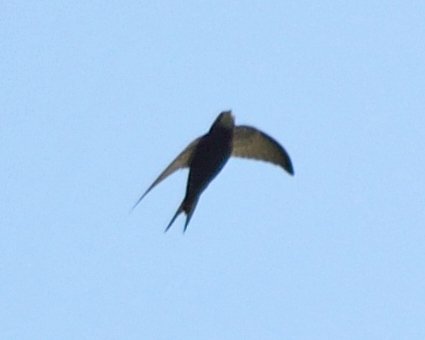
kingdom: Animalia
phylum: Chordata
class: Aves
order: Apodiformes
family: Apodidae
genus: Apus
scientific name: Apus apus
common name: Common swift
